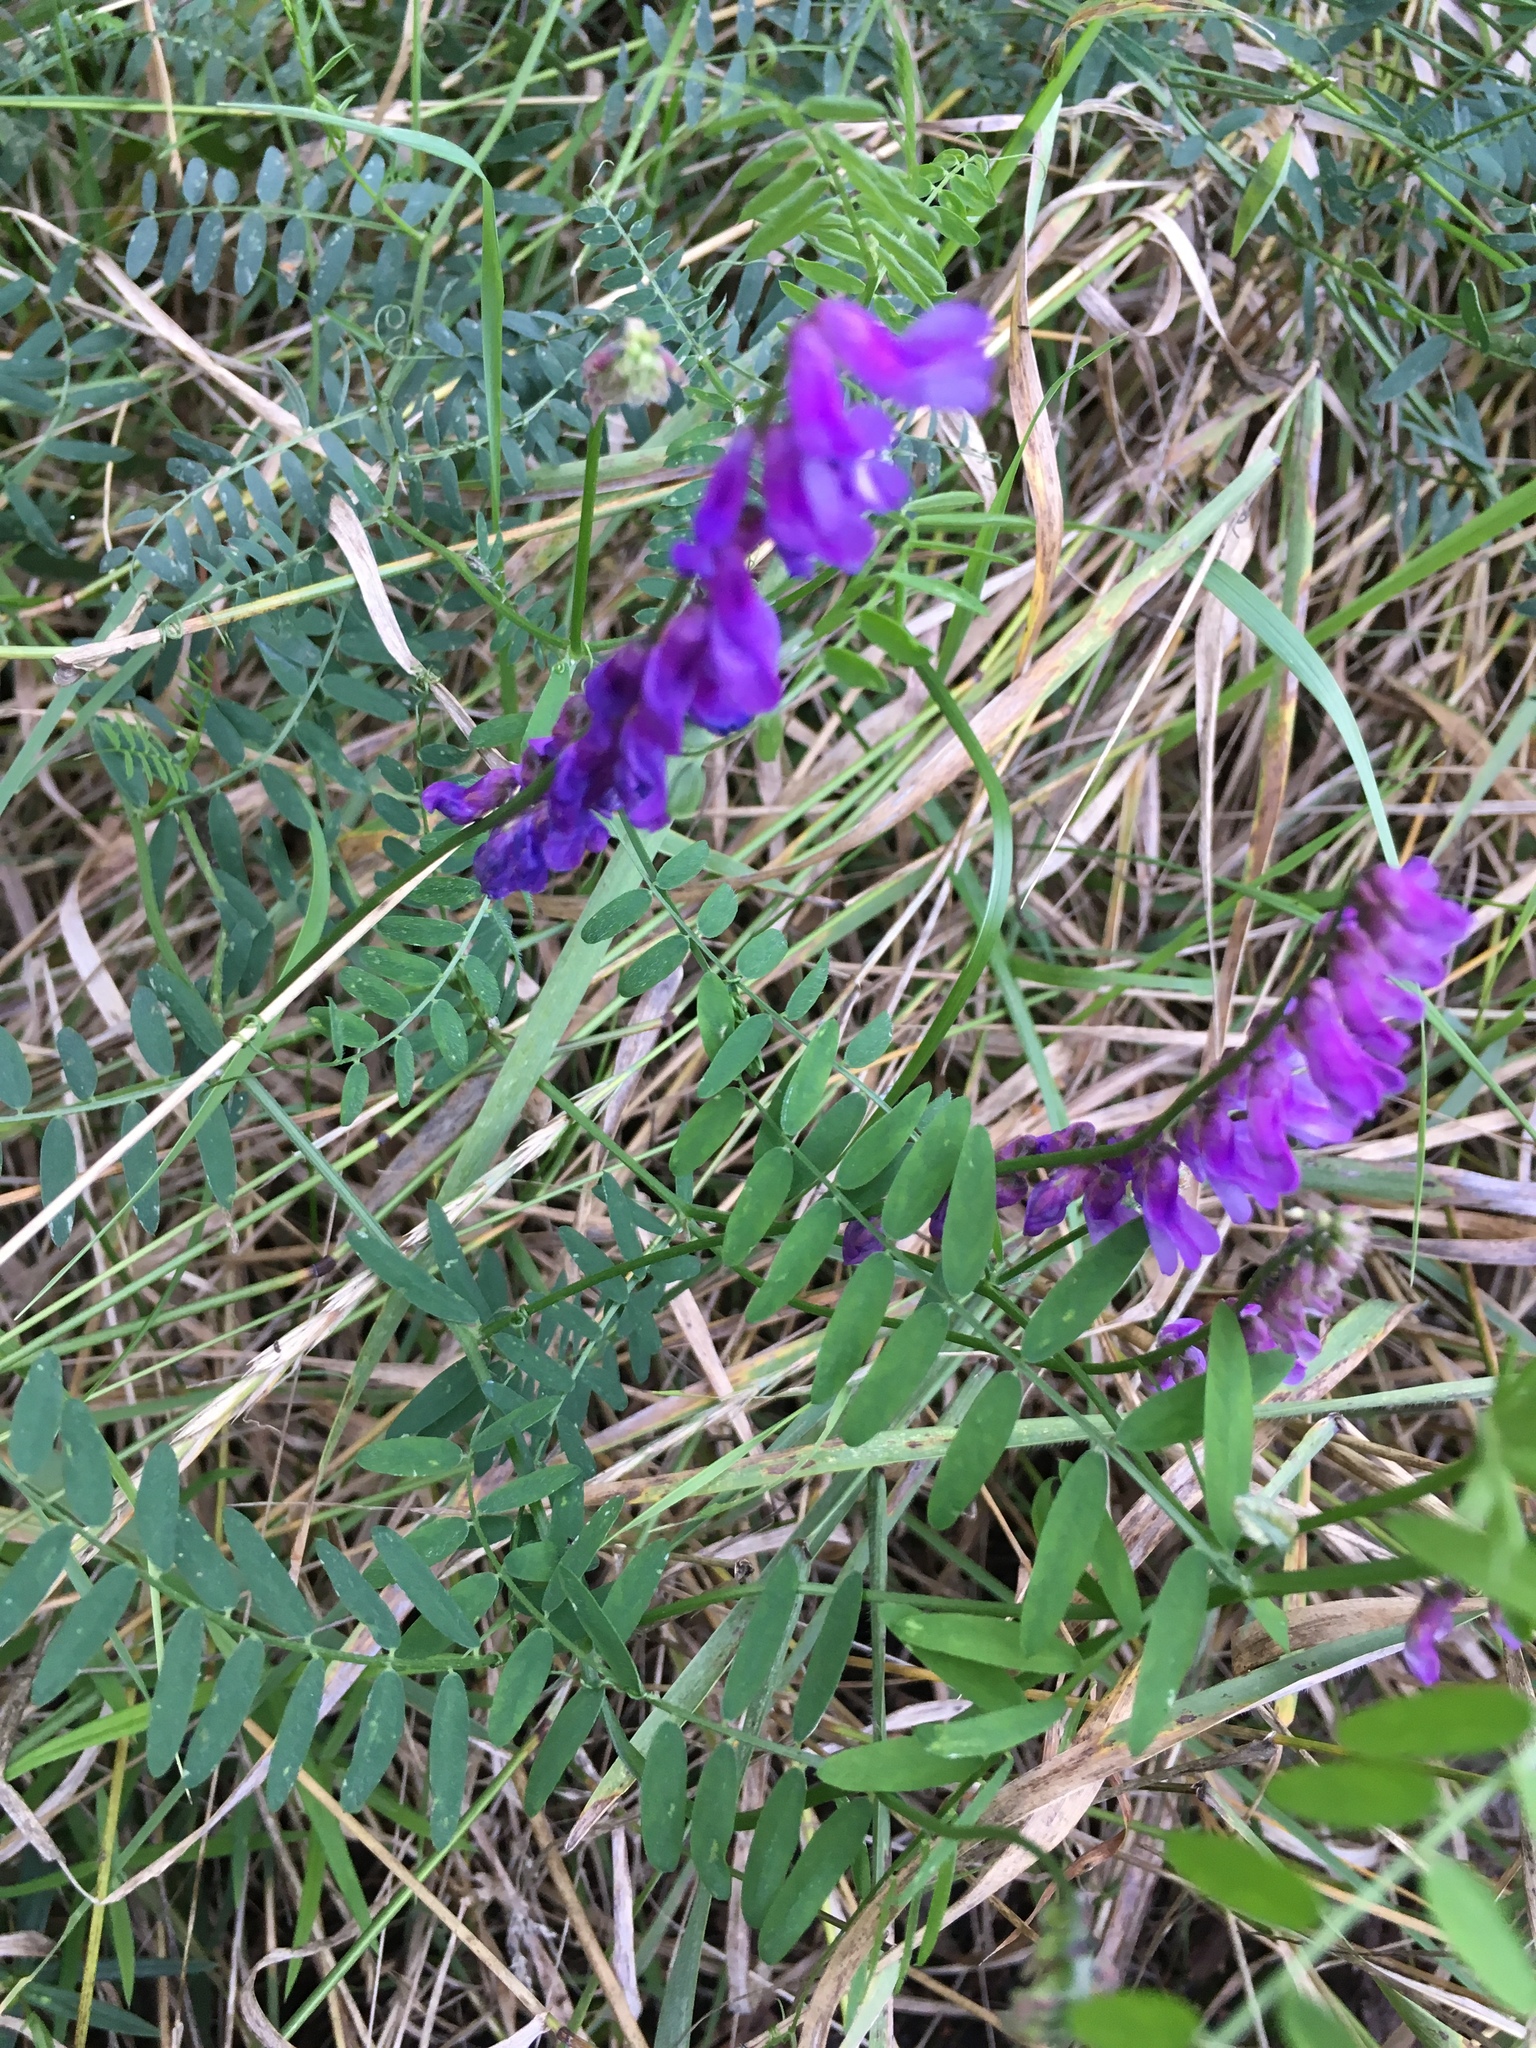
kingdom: Plantae
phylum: Tracheophyta
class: Magnoliopsida
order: Fabales
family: Fabaceae
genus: Vicia
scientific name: Vicia cracca
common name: Bird vetch
